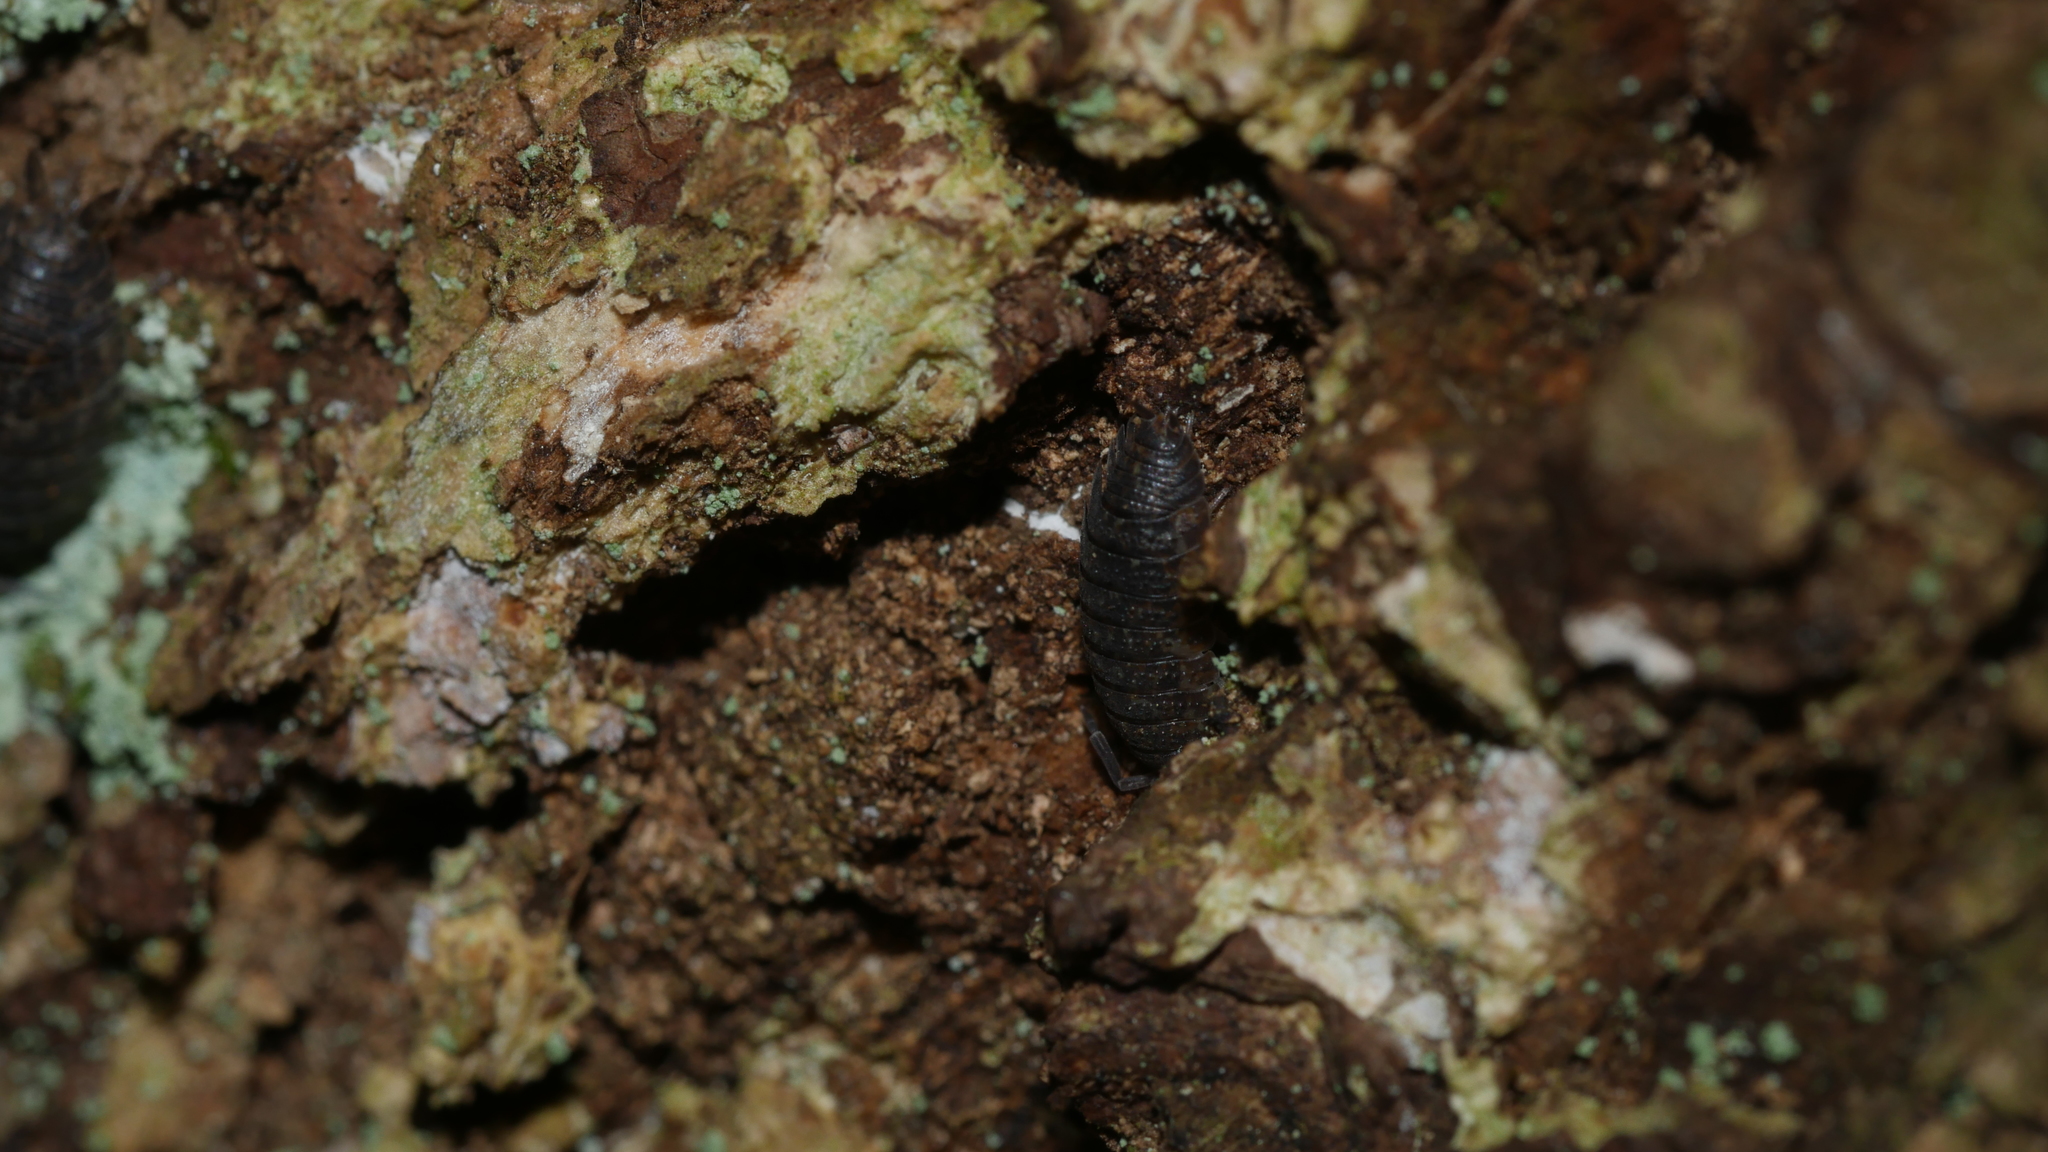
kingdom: Animalia
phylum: Arthropoda
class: Malacostraca
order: Isopoda
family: Porcellionidae
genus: Porcellio
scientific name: Porcellio scaber
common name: Common rough woodlouse
